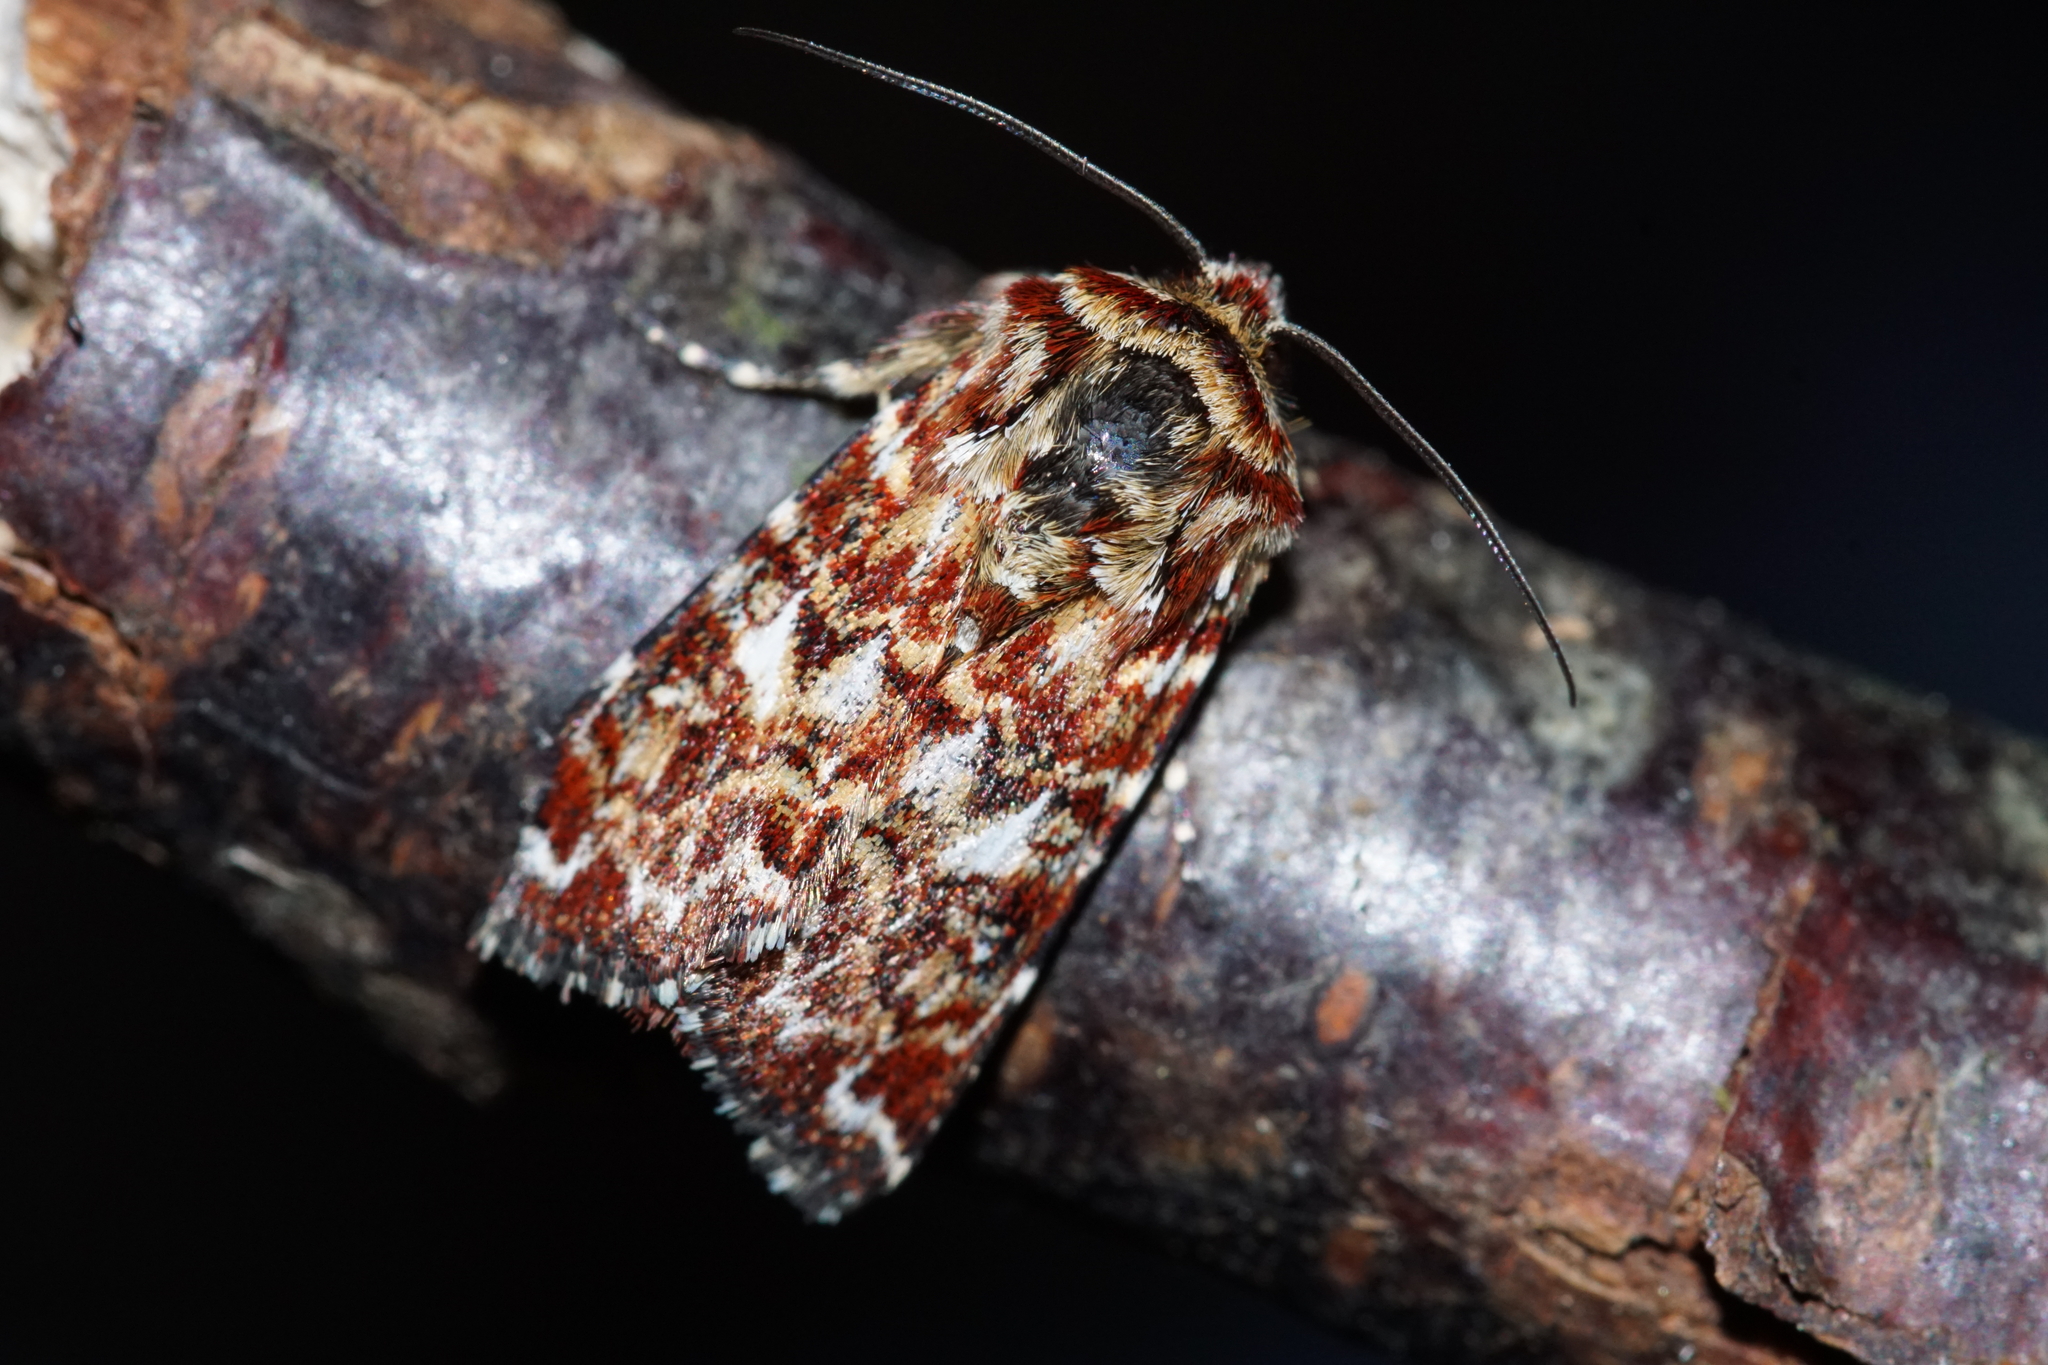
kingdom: Animalia
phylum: Arthropoda
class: Insecta
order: Lepidoptera
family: Noctuidae
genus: Anarta
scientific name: Anarta myrtilli
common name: Beautiful yellow underwing
